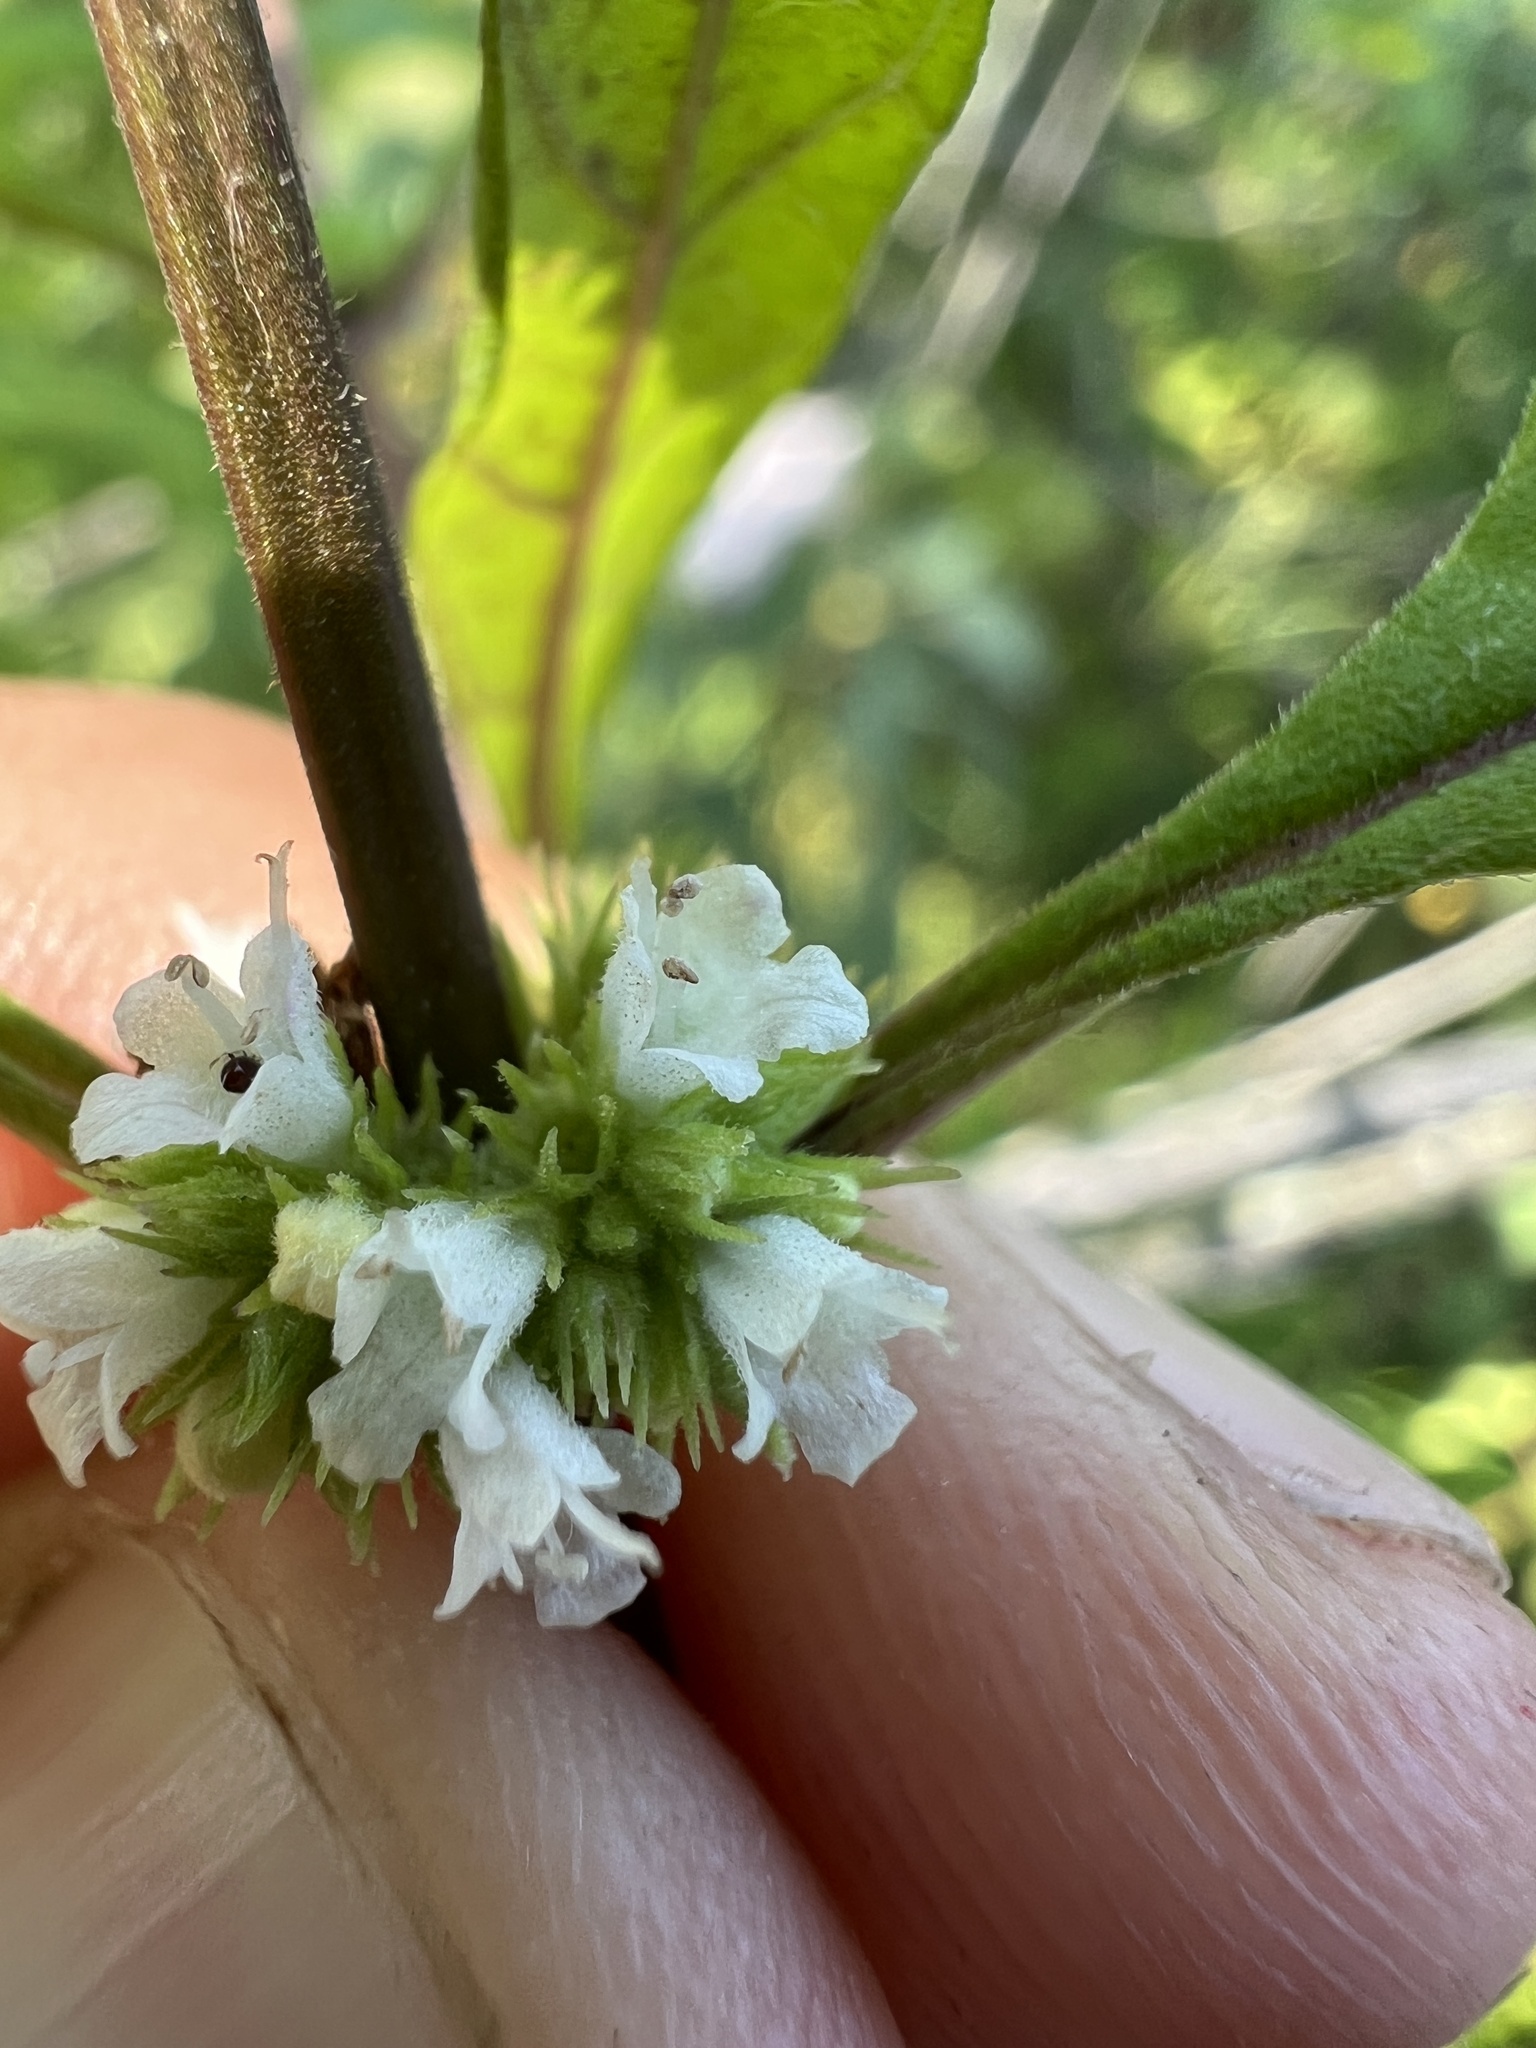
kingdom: Plantae
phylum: Tracheophyta
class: Magnoliopsida
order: Lamiales
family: Lamiaceae
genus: Lycopus
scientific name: Lycopus virginicus
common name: Bugleweed
